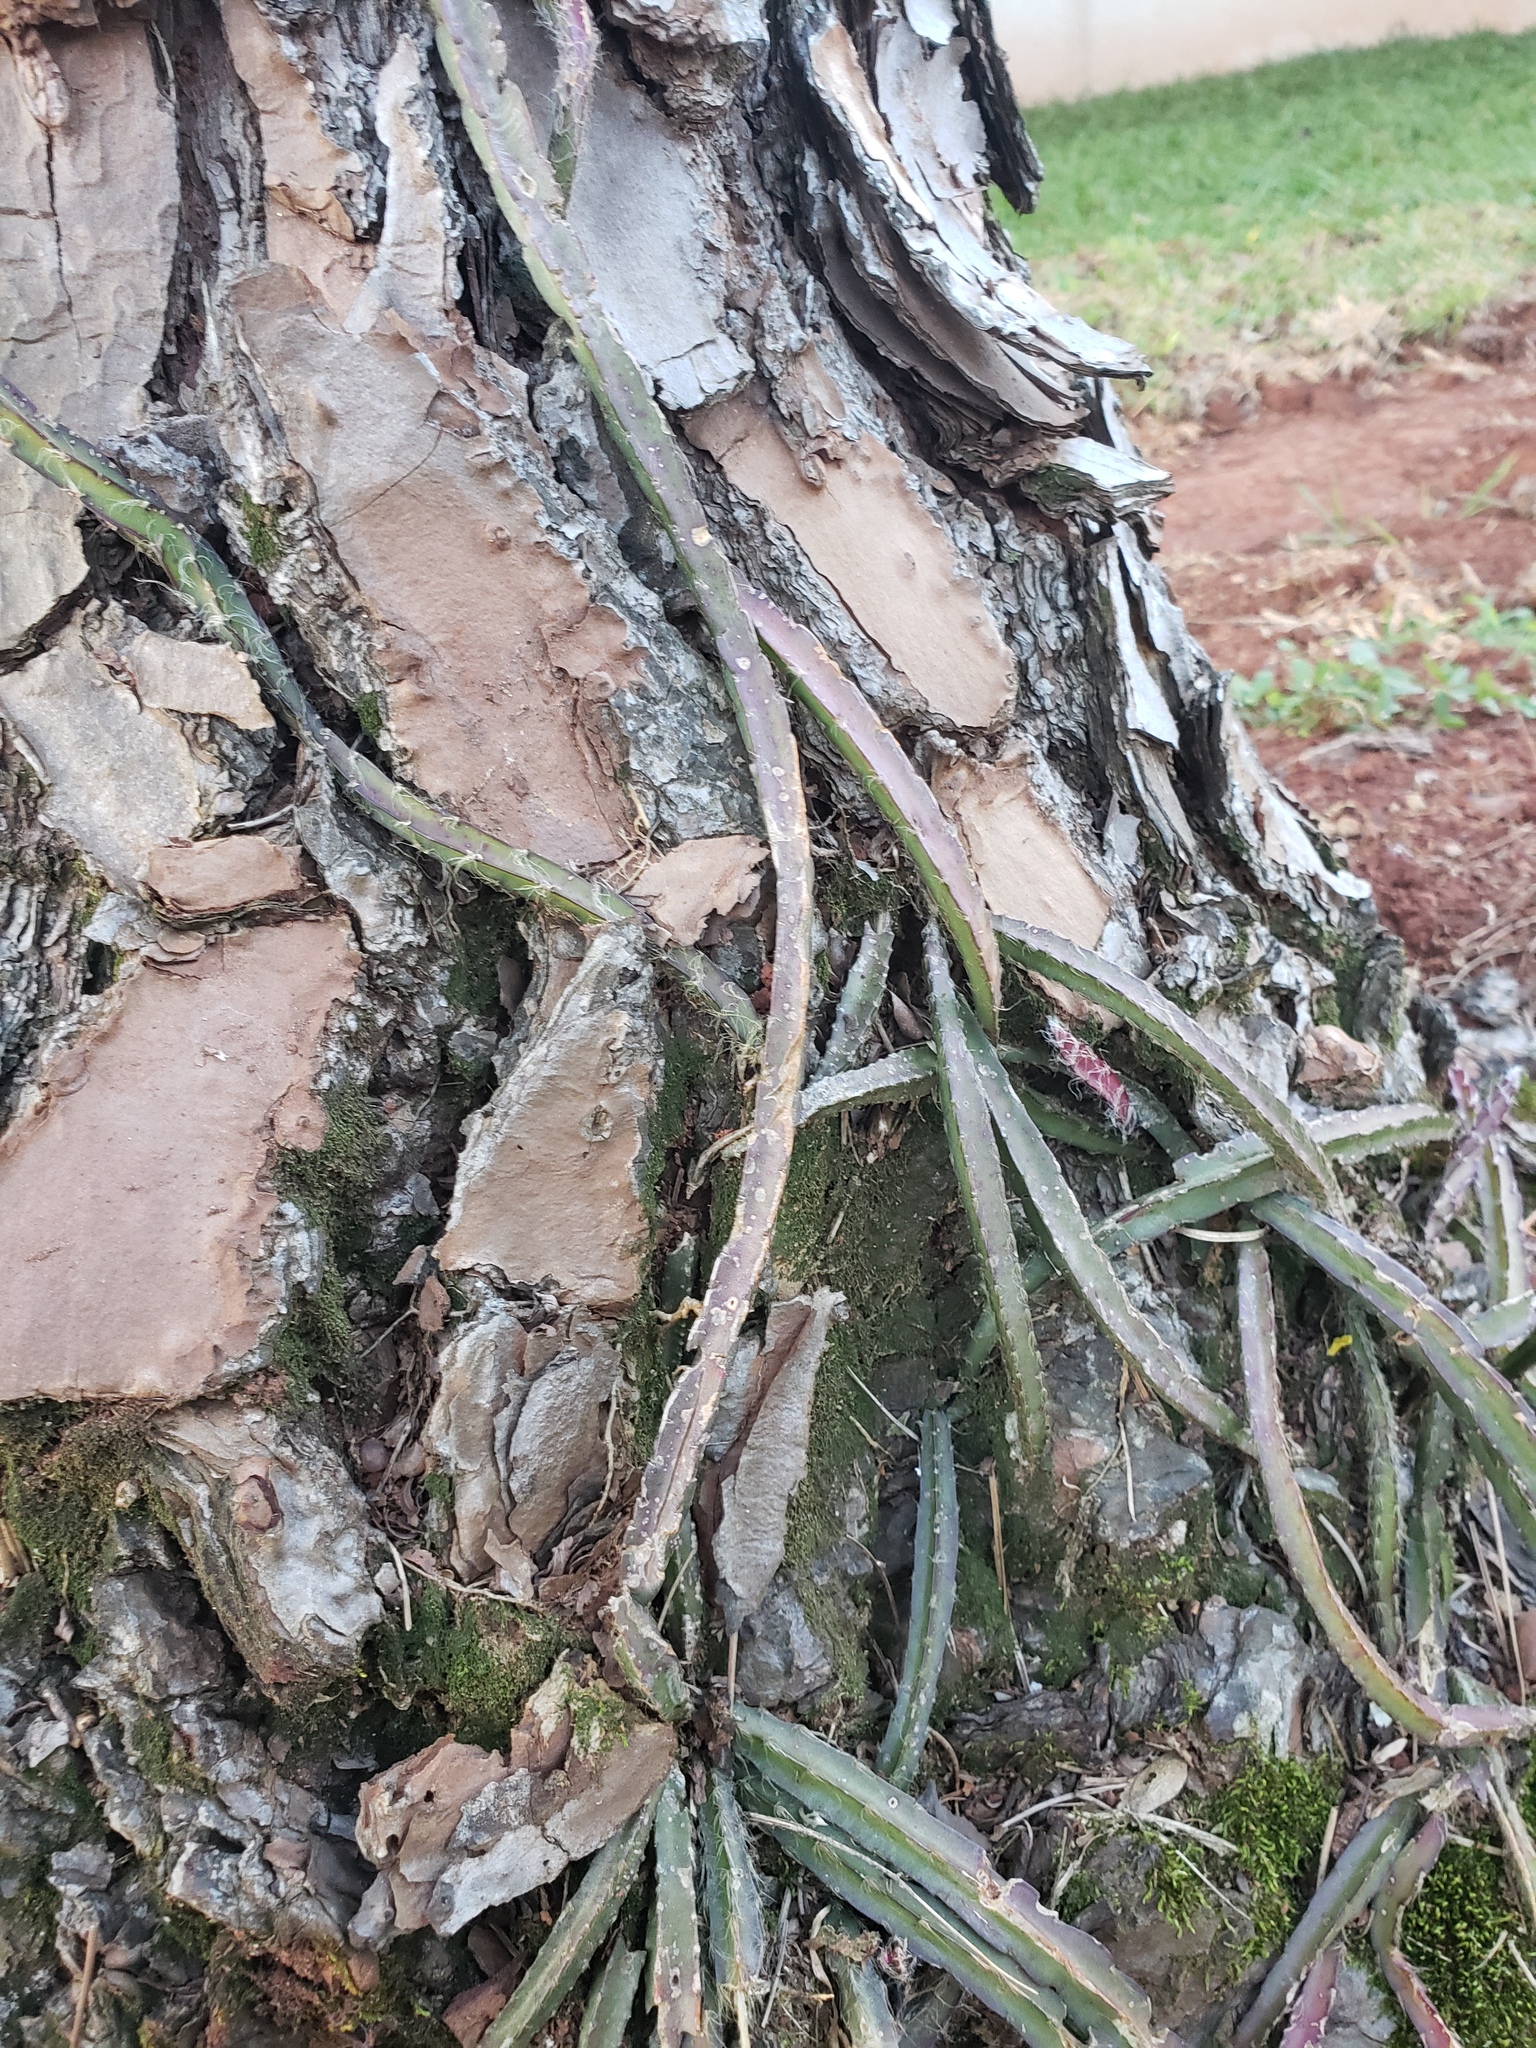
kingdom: Plantae
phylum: Tracheophyta
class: Magnoliopsida
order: Caryophyllales
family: Cactaceae
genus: Lepismium
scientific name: Lepismium cruciforme
